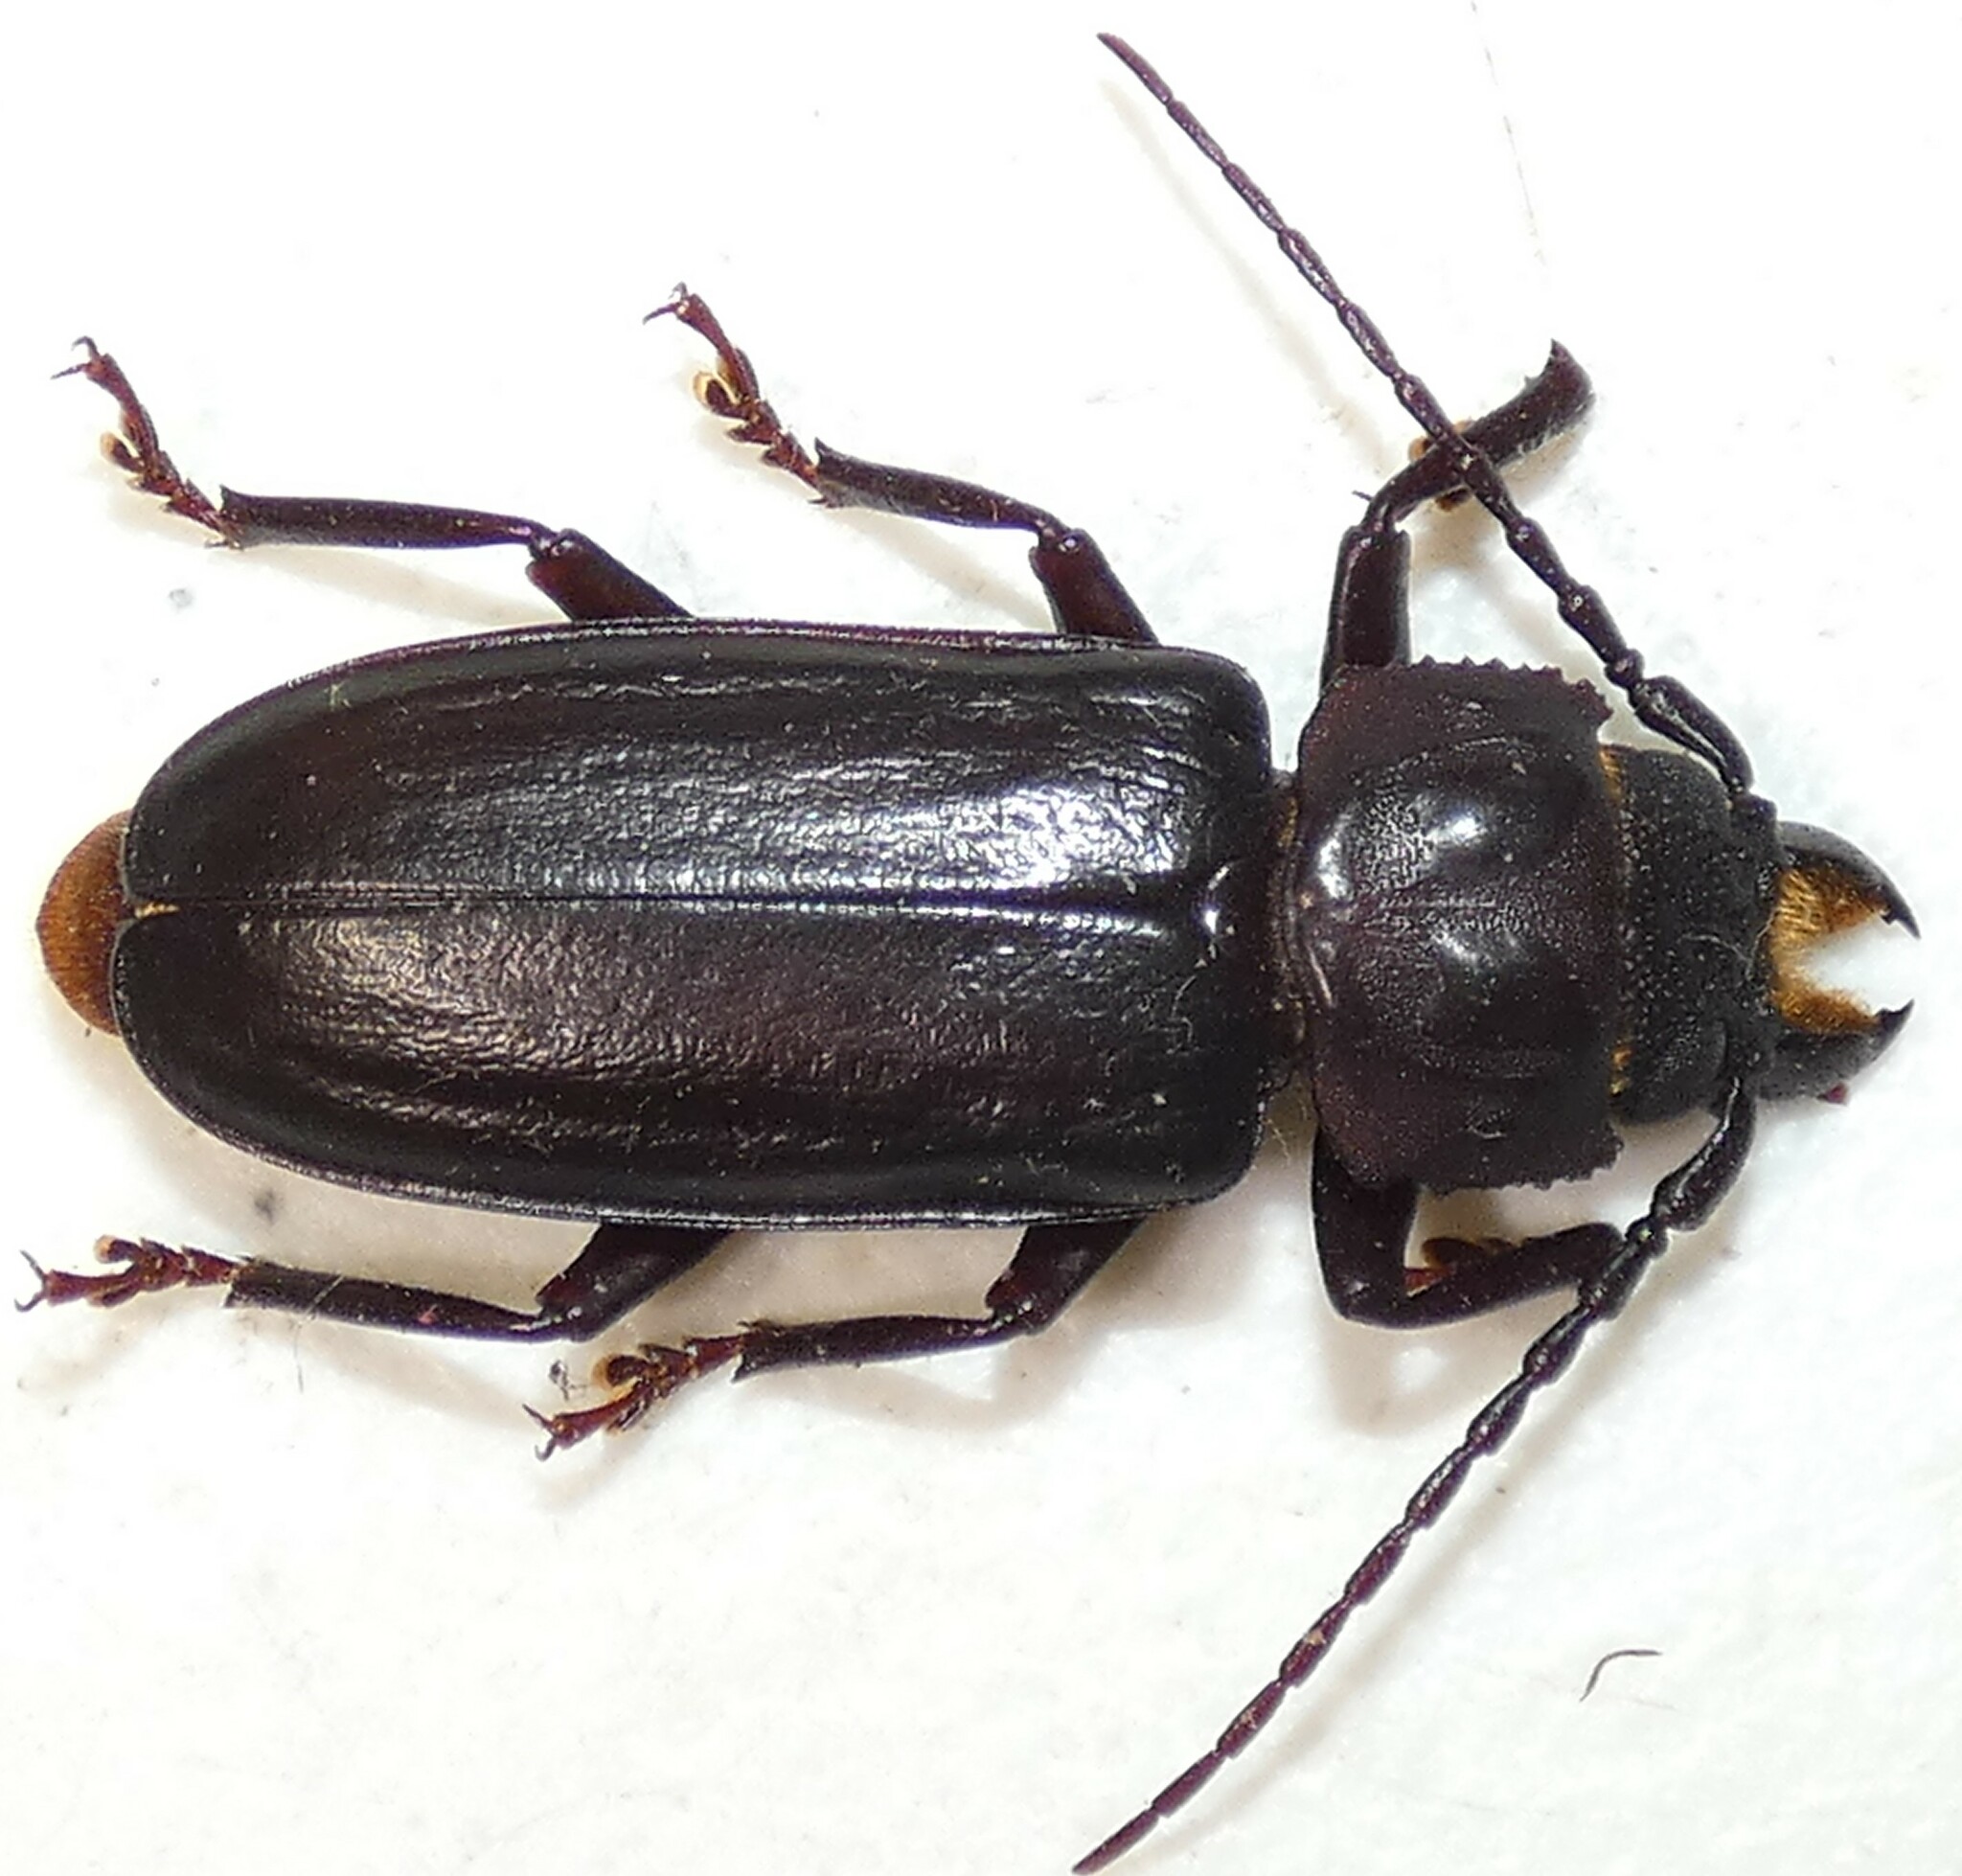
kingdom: Animalia
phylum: Arthropoda
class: Insecta
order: Coleoptera
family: Cerambycidae
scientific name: Cerambycidae
